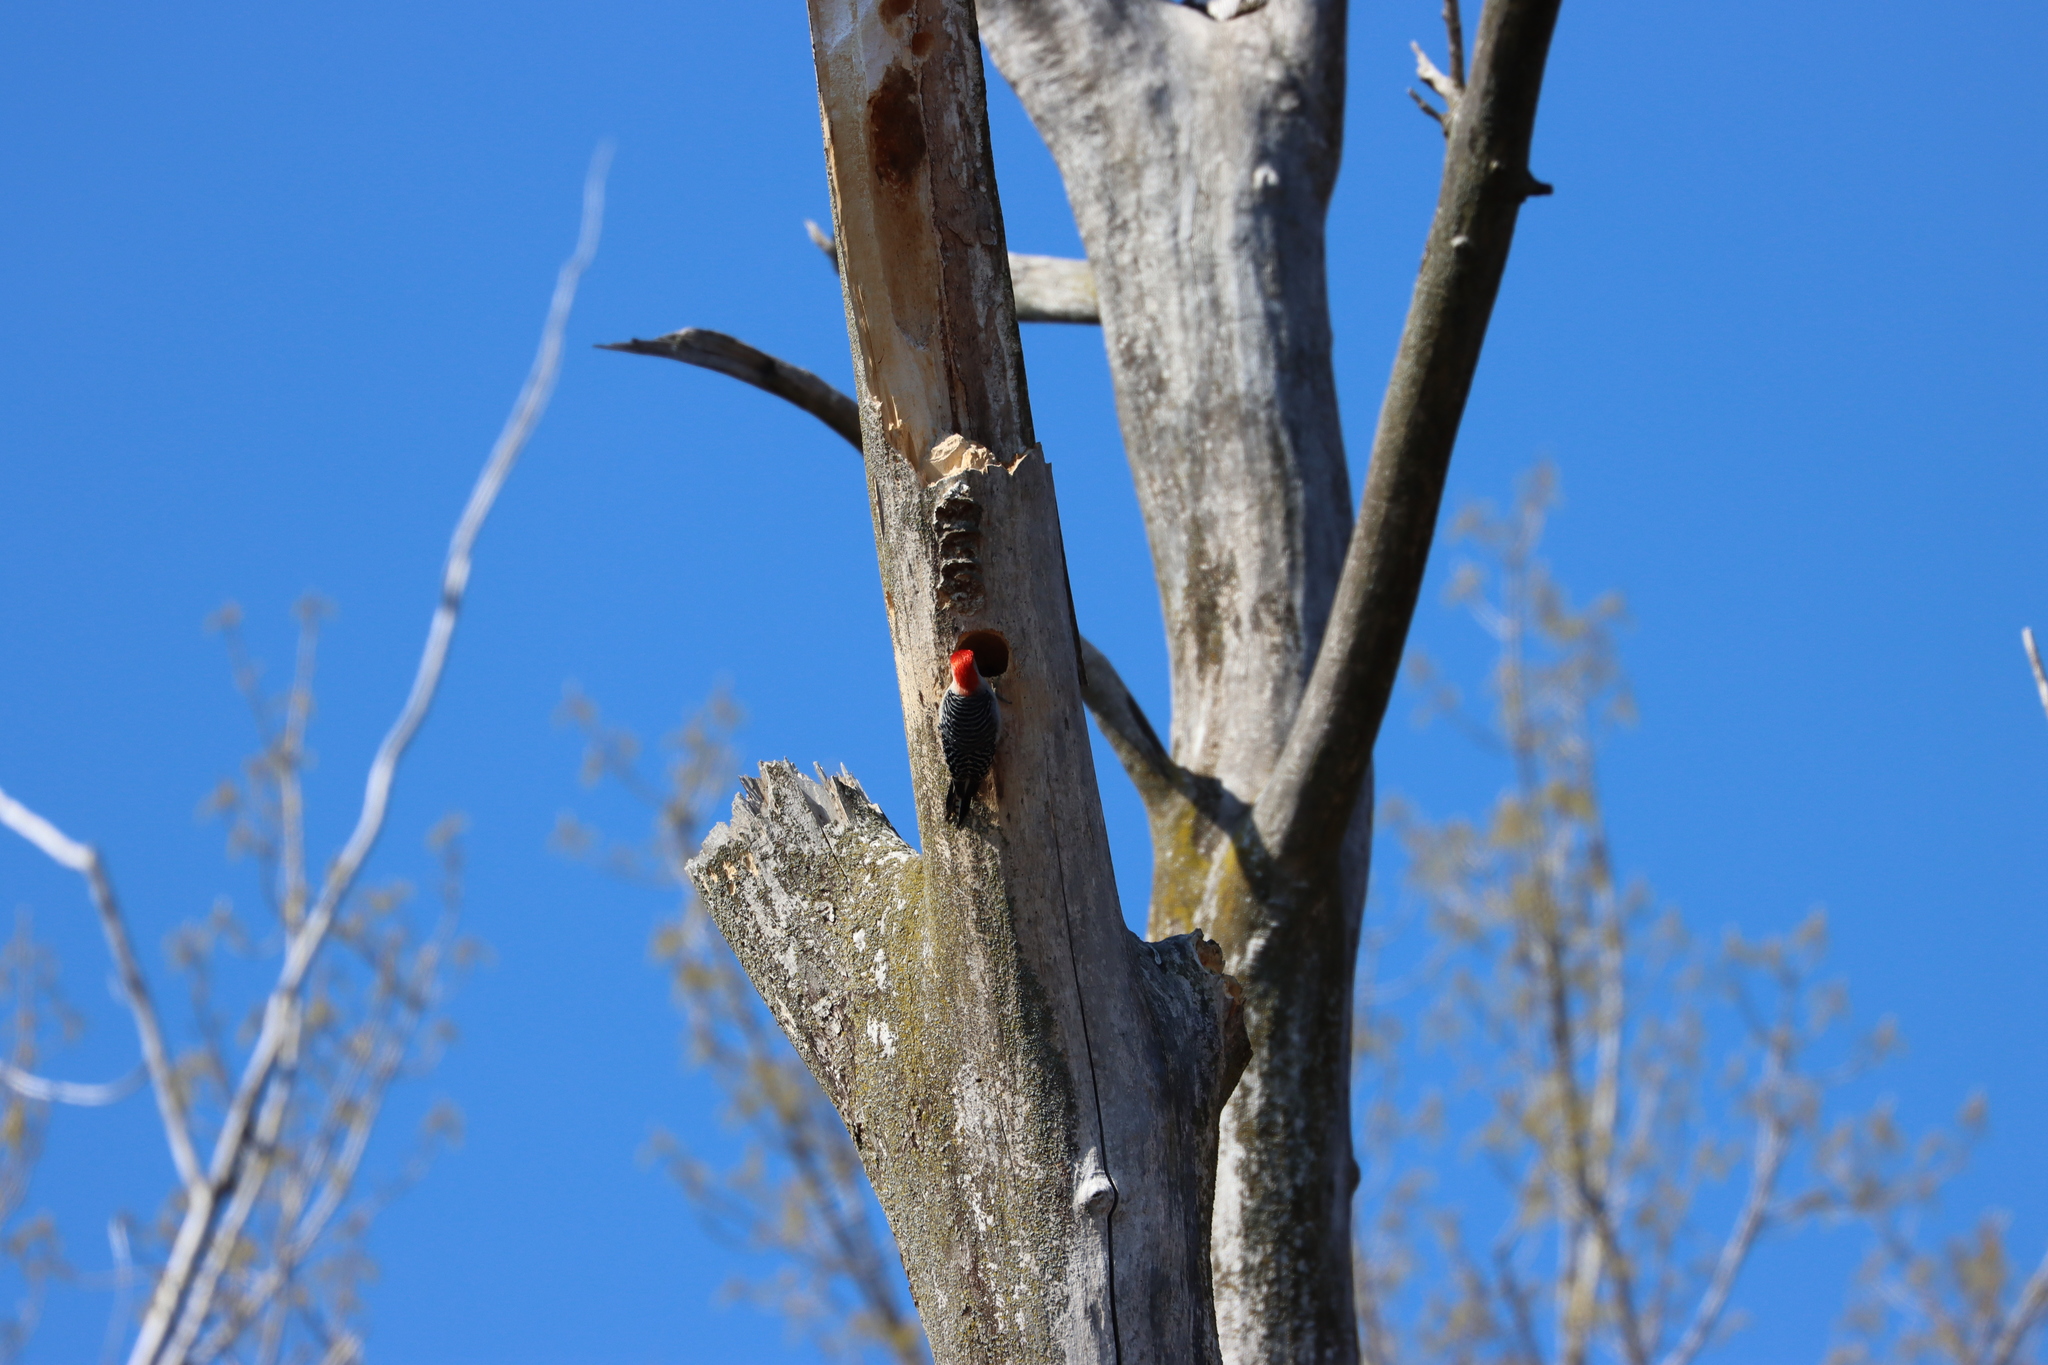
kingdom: Animalia
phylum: Chordata
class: Aves
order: Piciformes
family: Picidae
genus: Melanerpes
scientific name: Melanerpes carolinus
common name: Red-bellied woodpecker
